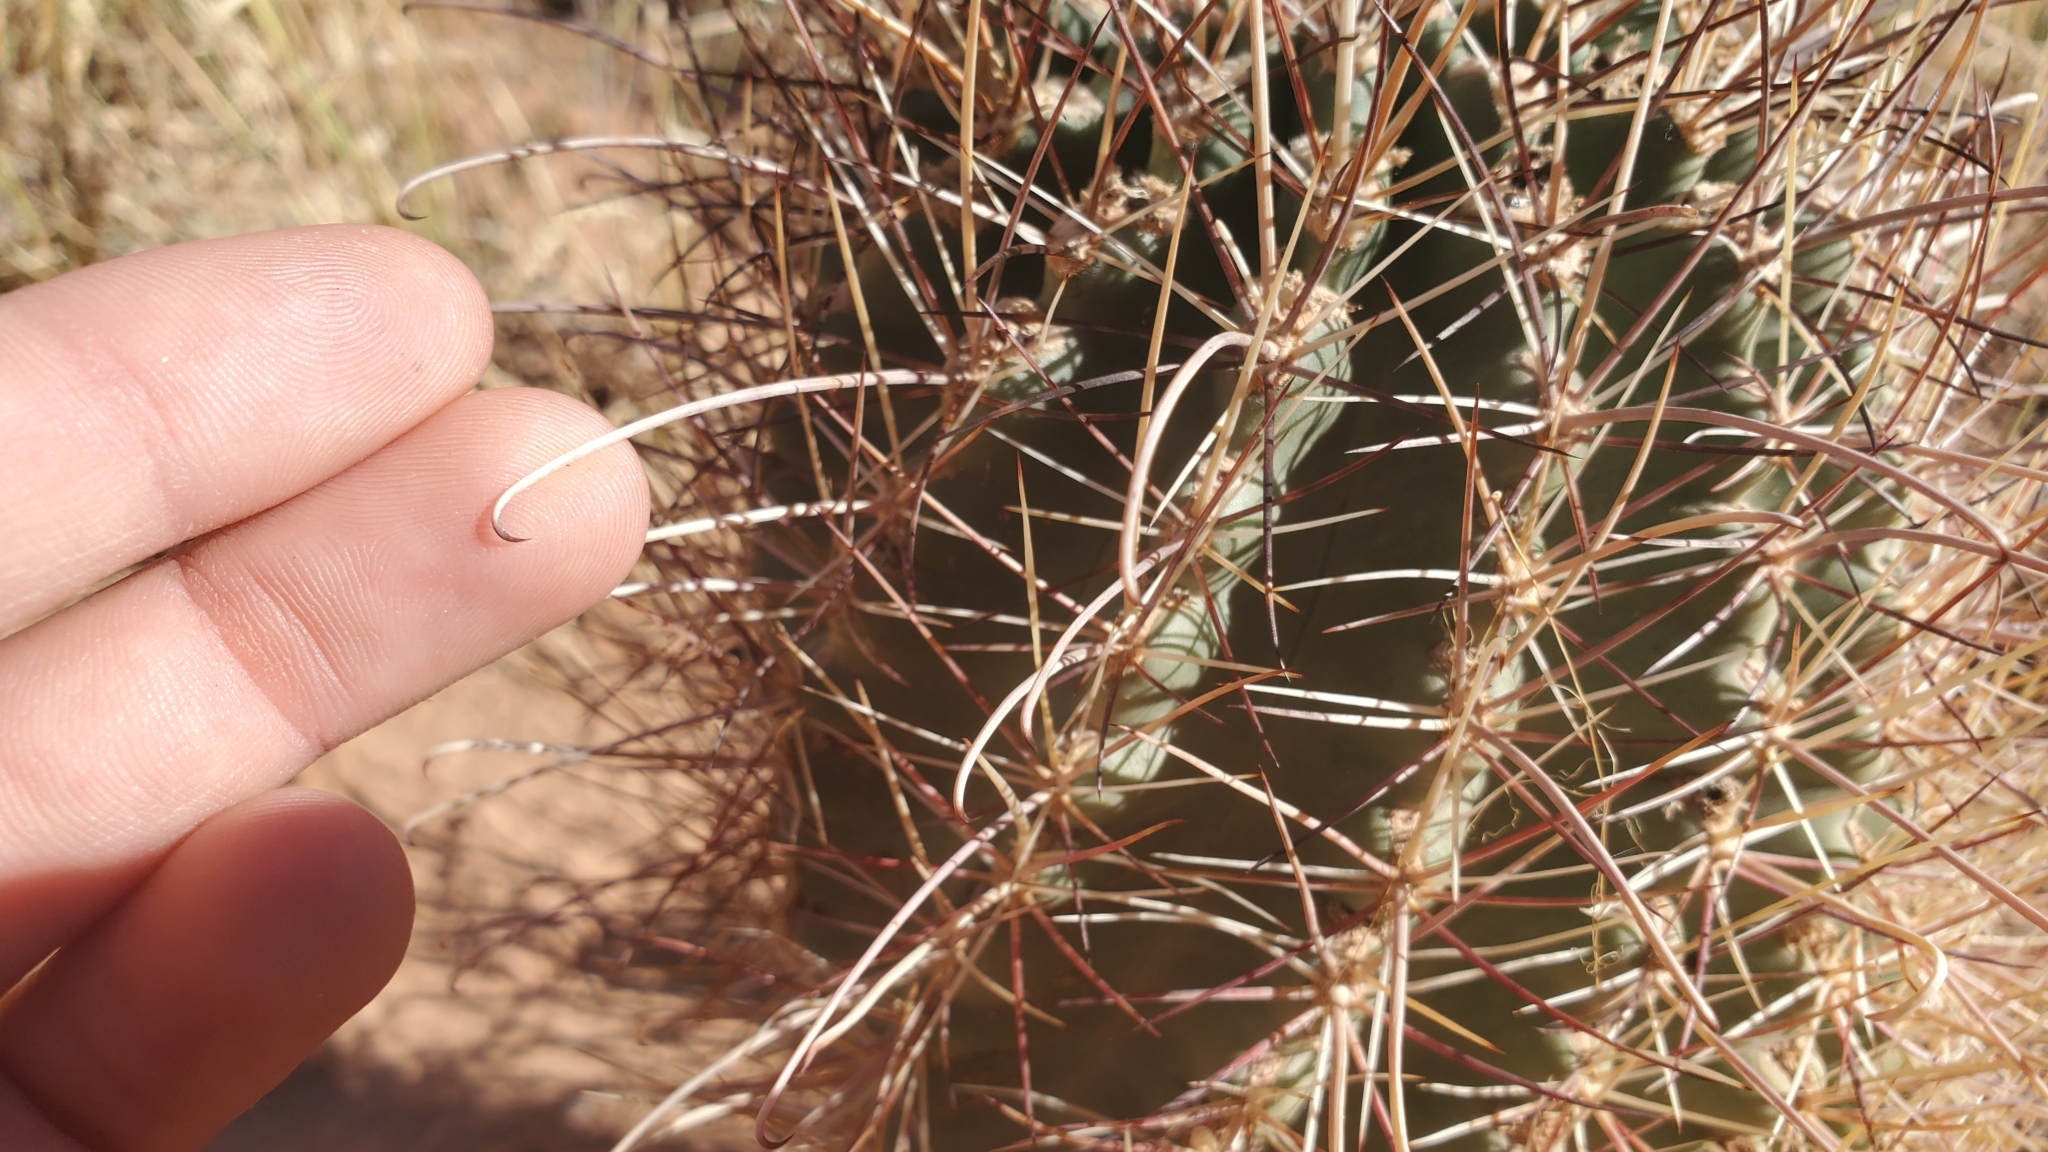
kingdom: Plantae
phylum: Tracheophyta
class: Magnoliopsida
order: Caryophyllales
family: Cactaceae
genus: Sclerocactus
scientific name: Sclerocactus parviflorus
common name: Small-flower fishhook cactus
